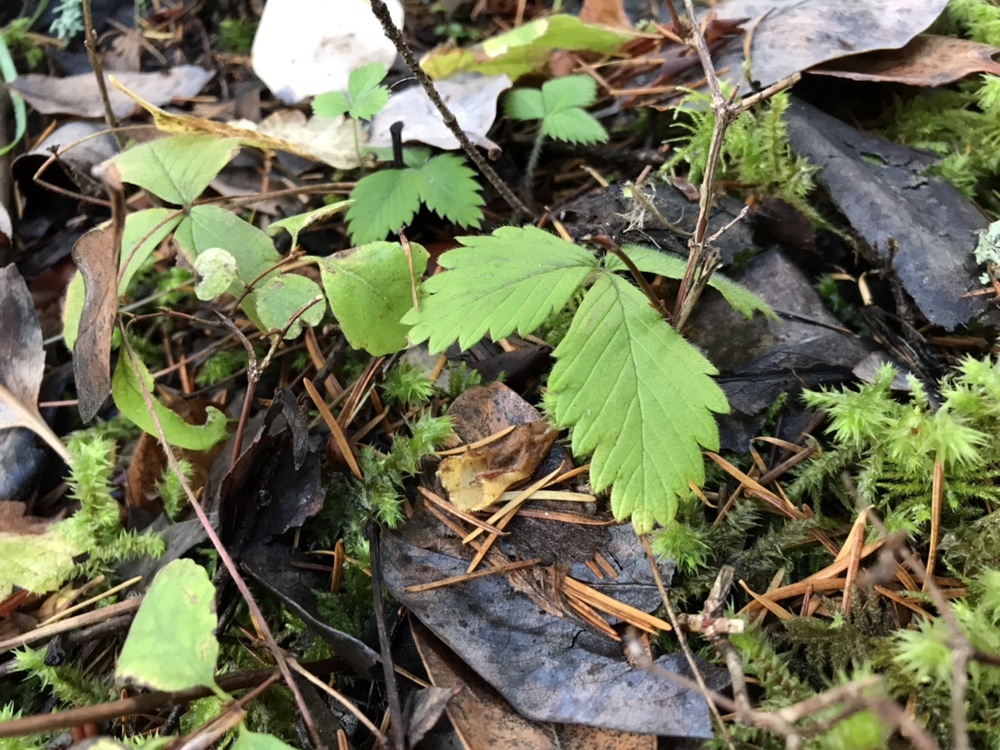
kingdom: Plantae
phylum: Tracheophyta
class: Magnoliopsida
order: Rosales
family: Rosaceae
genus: Fragaria
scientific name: Fragaria vesca
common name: Wild strawberry
